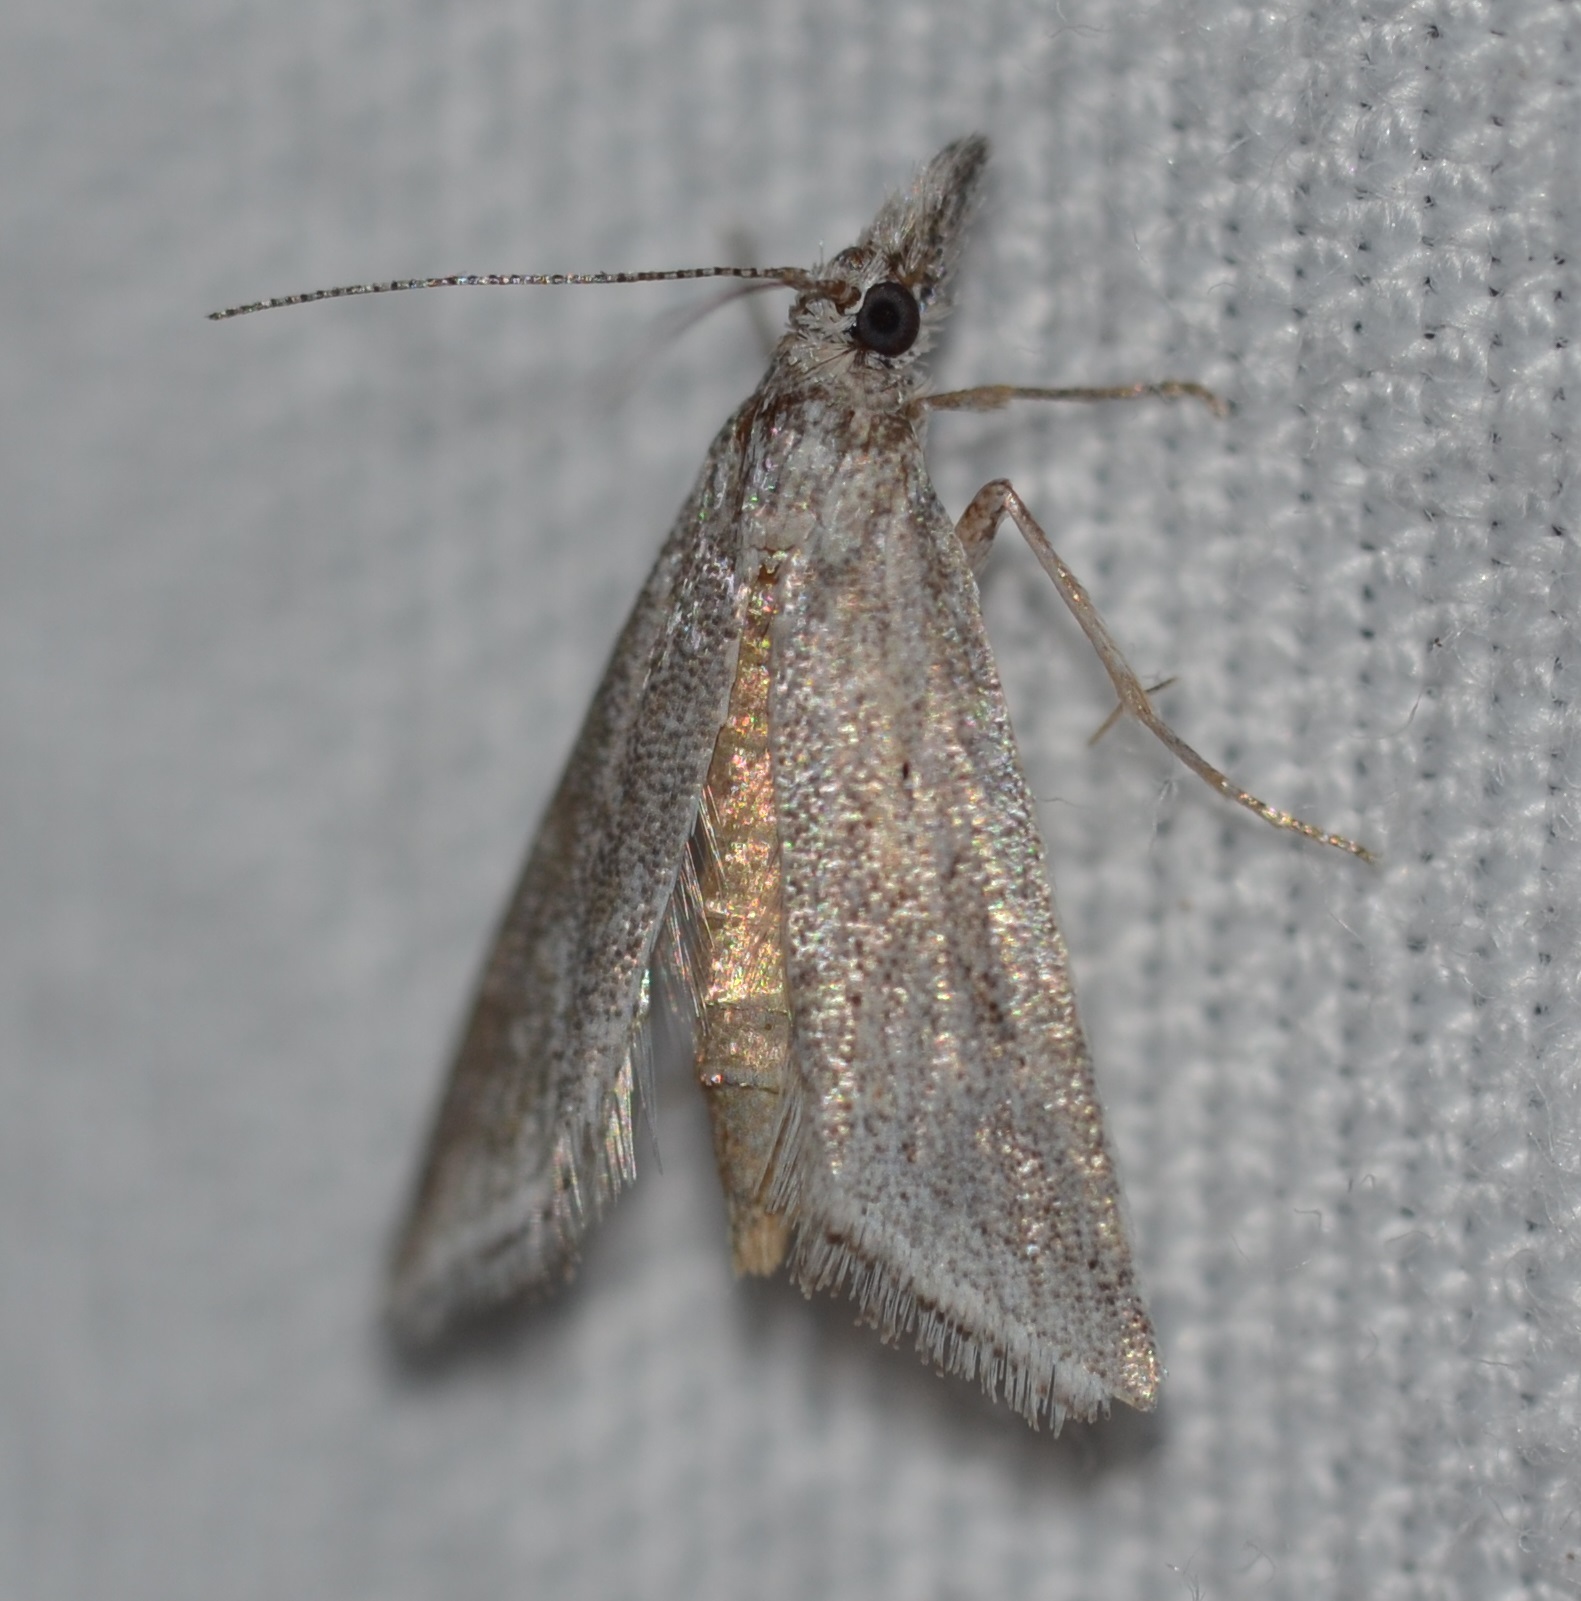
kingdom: Animalia
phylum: Arthropoda
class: Insecta
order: Lepidoptera
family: Crambidae
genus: Tamsica
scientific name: Tamsica hyacinthina
